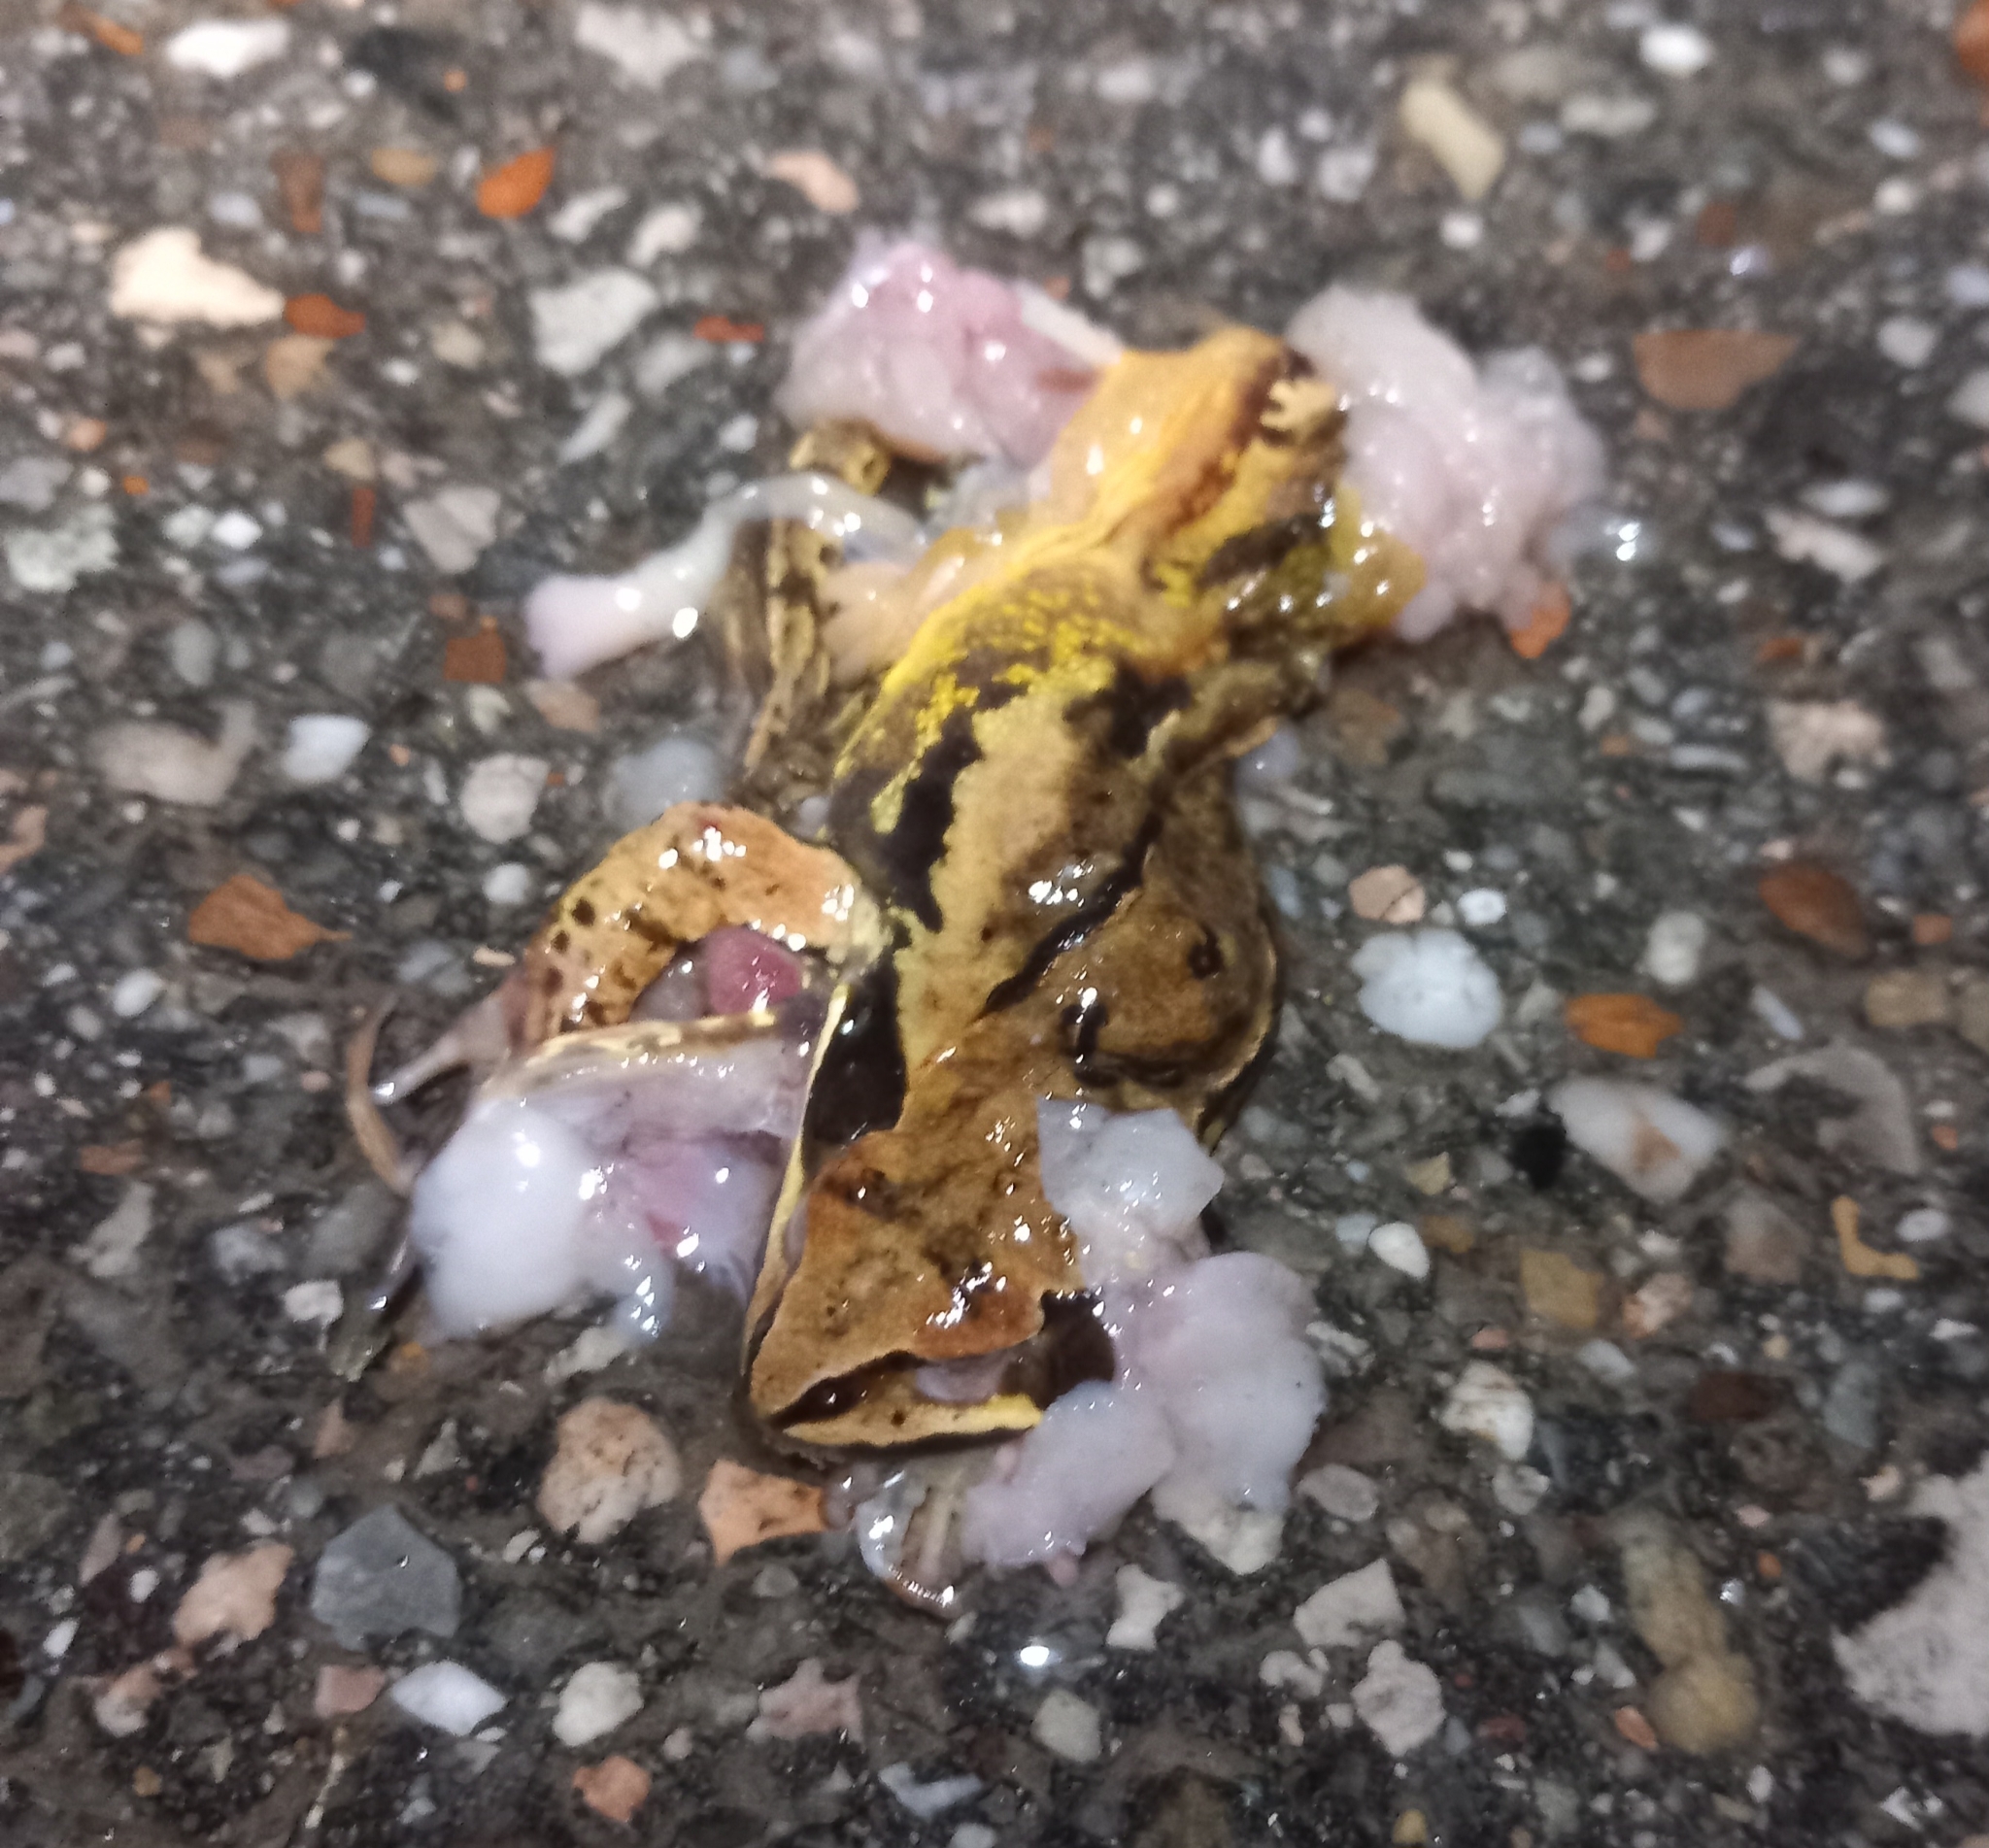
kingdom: Animalia
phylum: Chordata
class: Amphibia
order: Anura
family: Ranidae
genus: Rana
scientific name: Rana arvalis
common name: Moor frog
